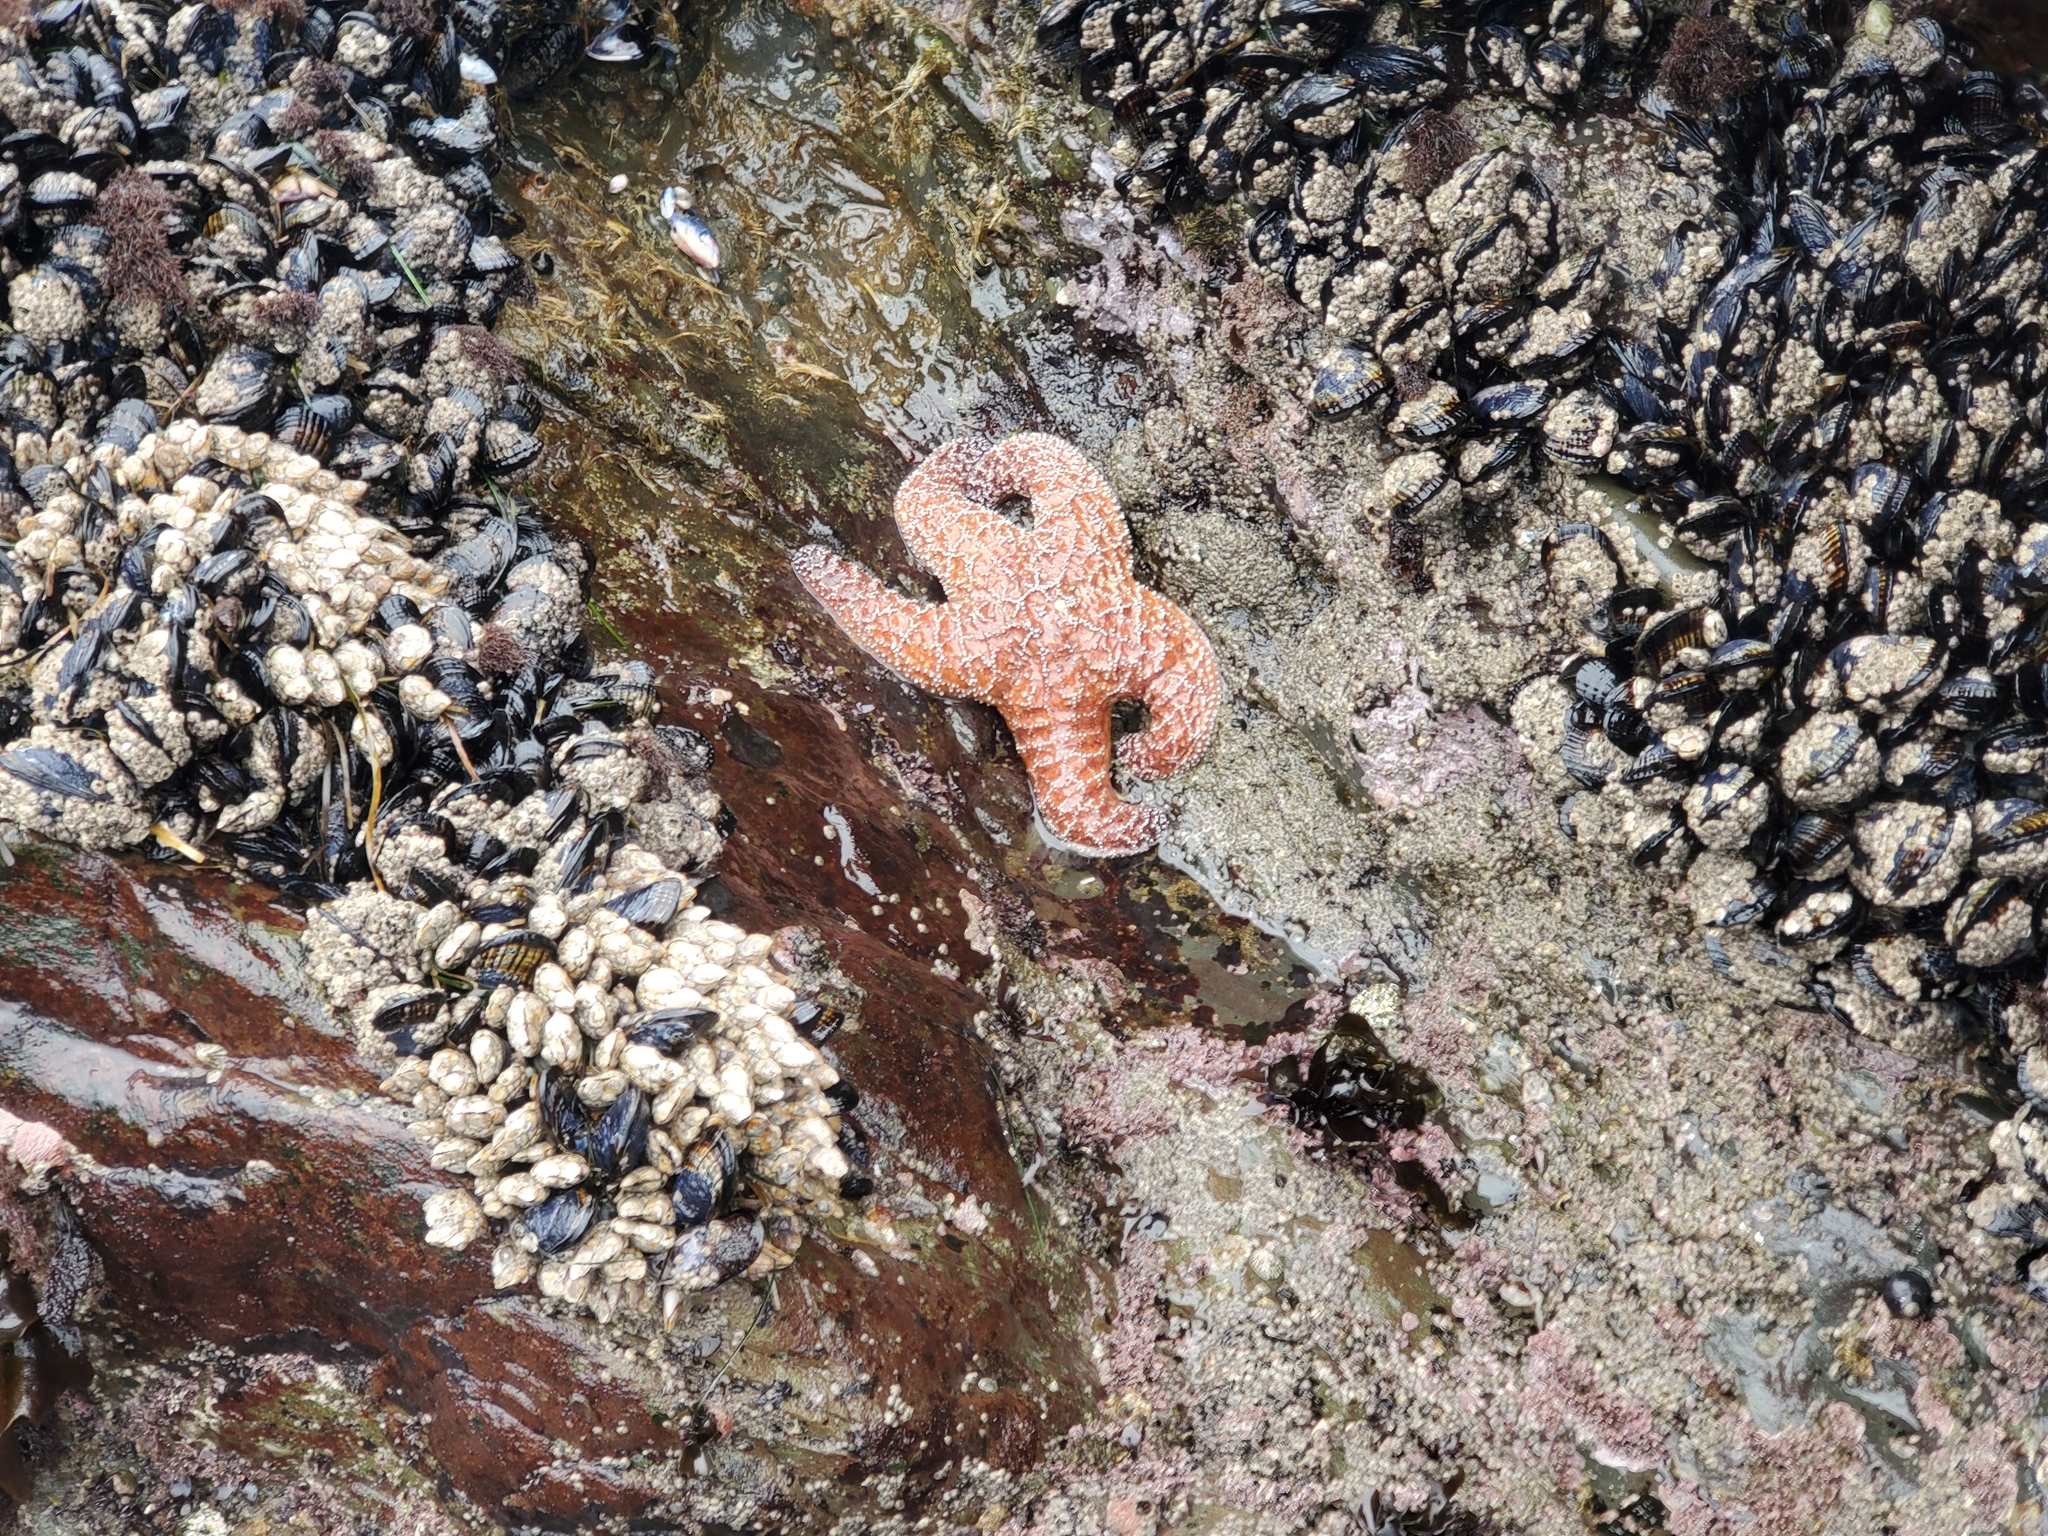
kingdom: Animalia
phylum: Echinodermata
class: Asteroidea
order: Forcipulatida
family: Asteriidae
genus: Pisaster
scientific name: Pisaster ochraceus
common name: Ochre stars
